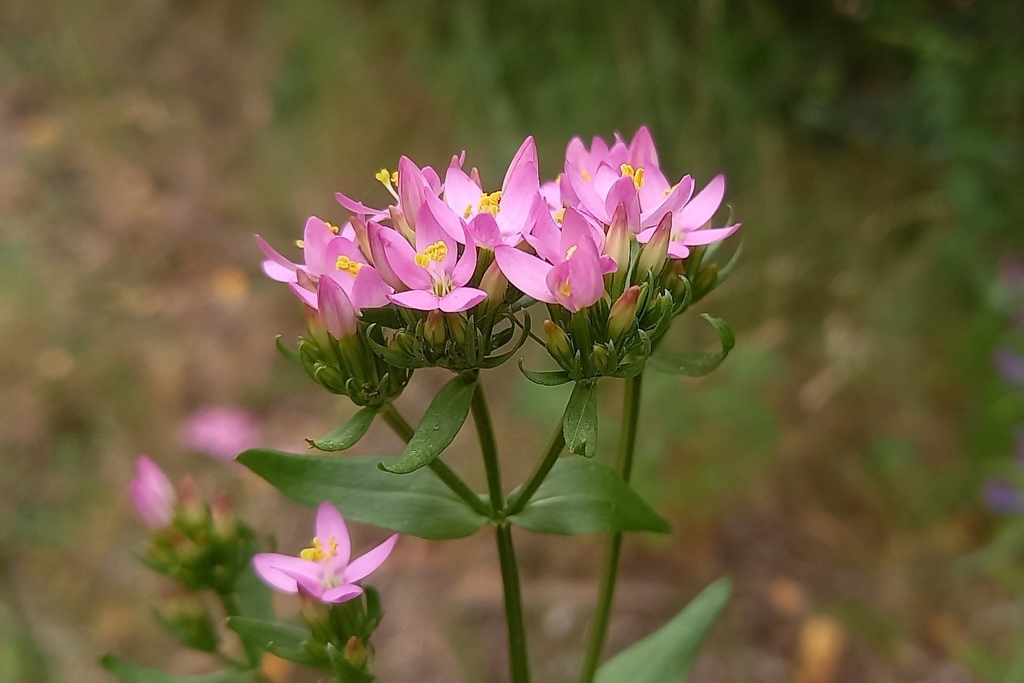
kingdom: Plantae
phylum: Tracheophyta
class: Magnoliopsida
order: Gentianales
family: Gentianaceae
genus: Centaurium
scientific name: Centaurium erythraea
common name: Common centaury
